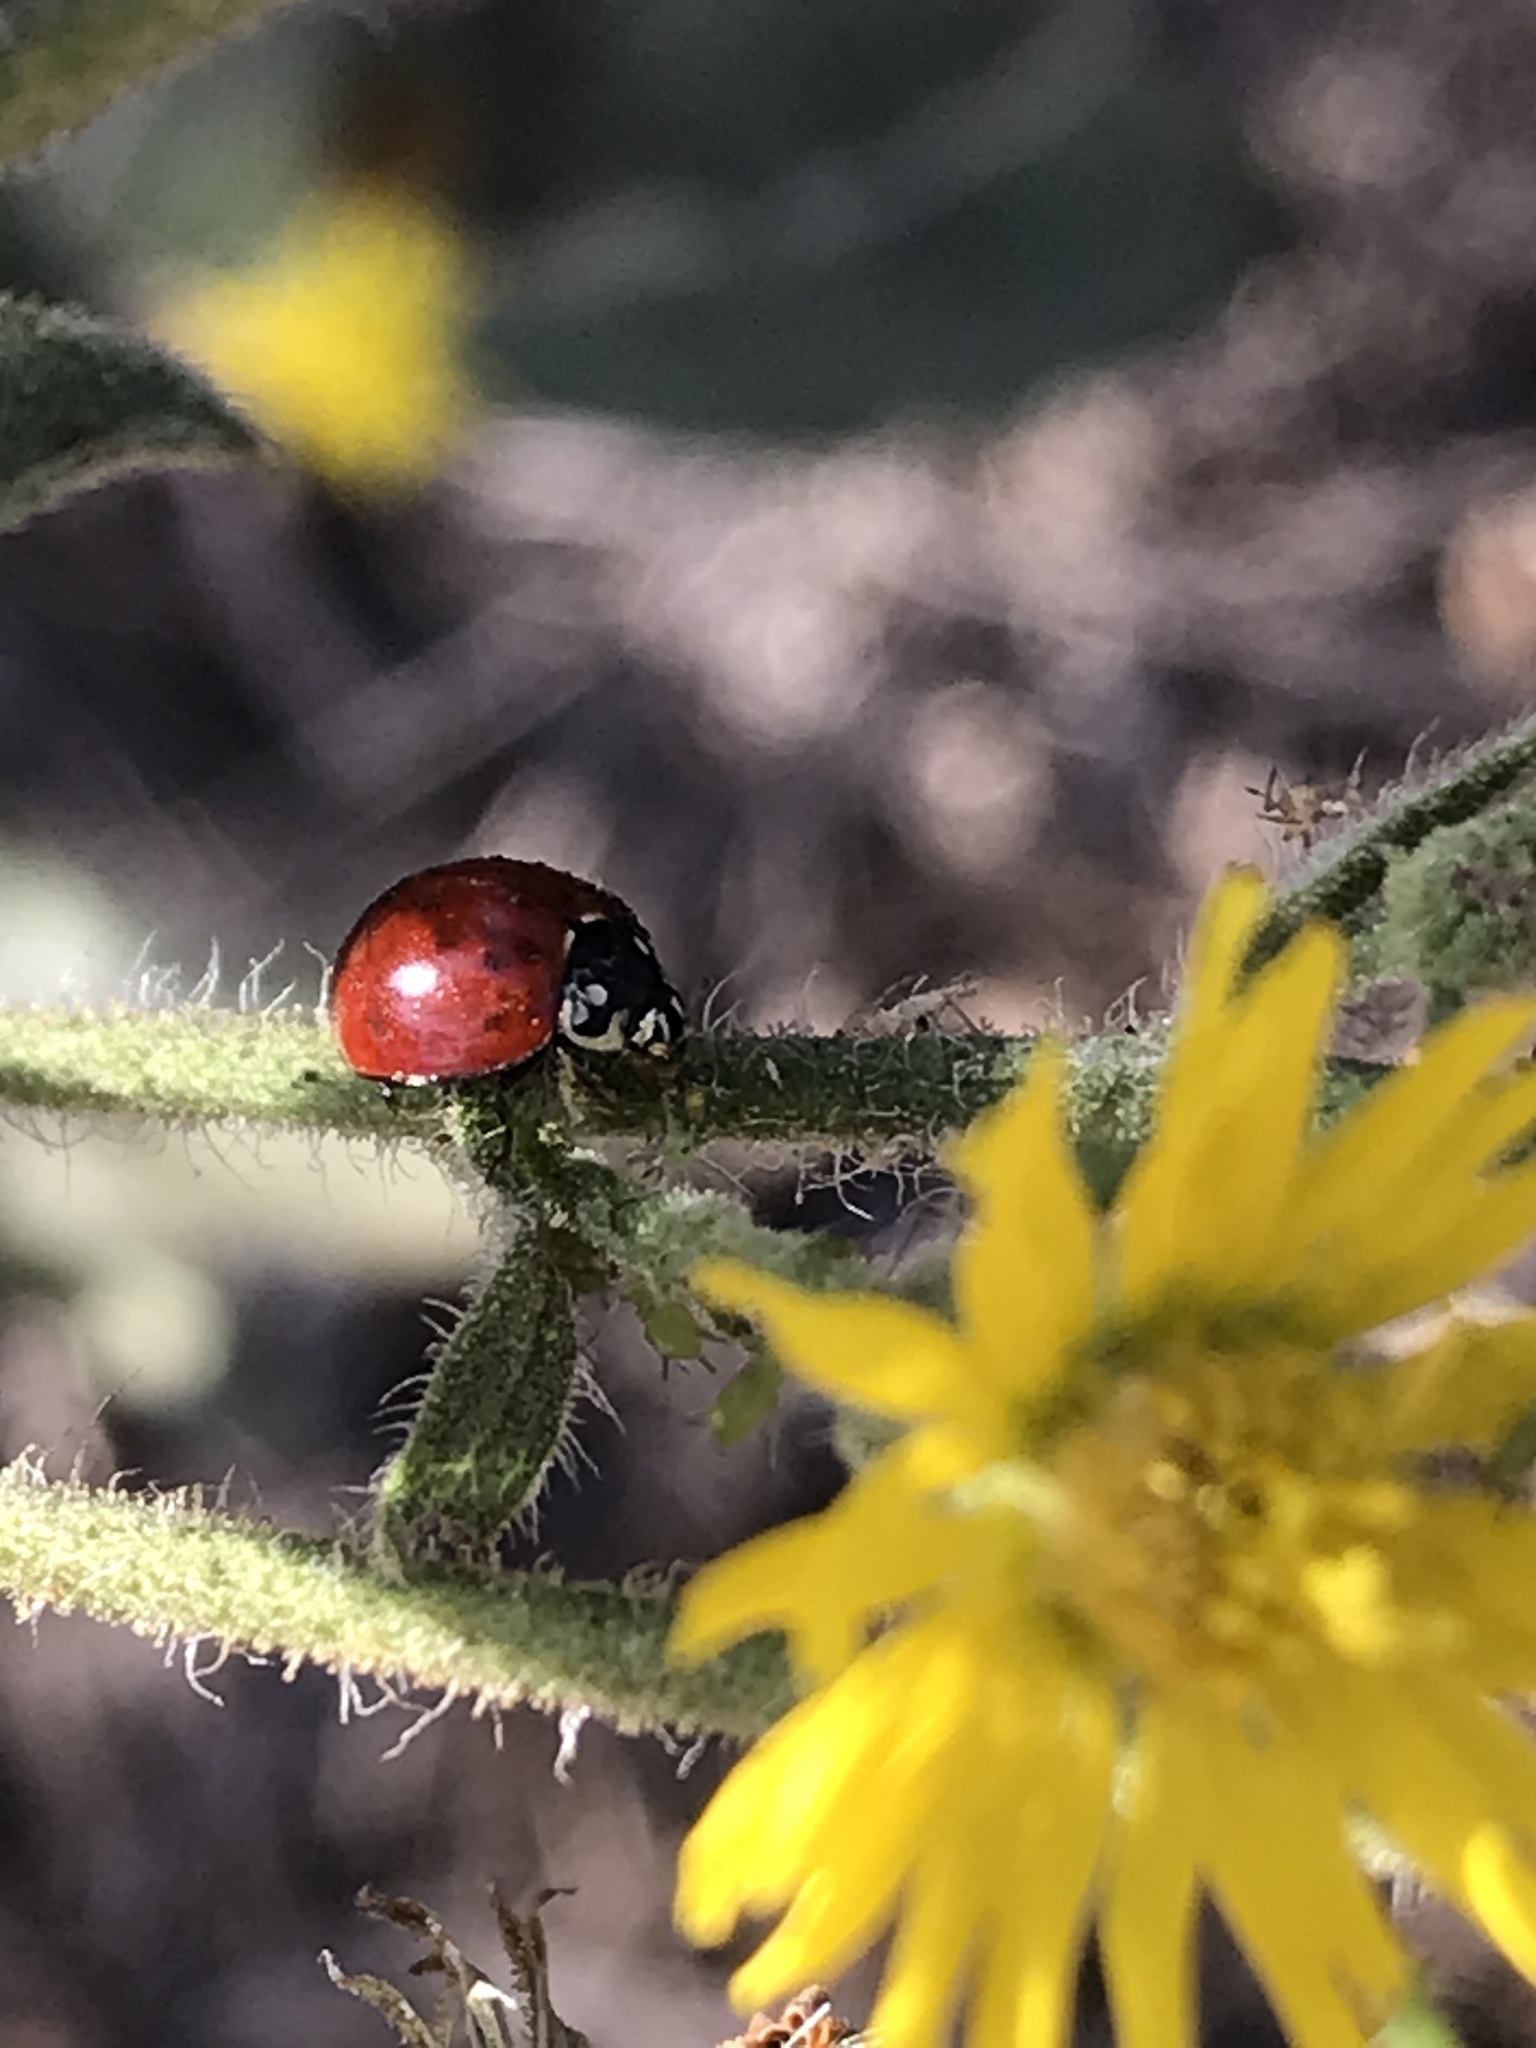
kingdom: Animalia
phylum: Arthropoda
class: Insecta
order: Coleoptera
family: Coccinellidae
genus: Cycloneda
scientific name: Cycloneda sanguinea
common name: Ladybird beetle
